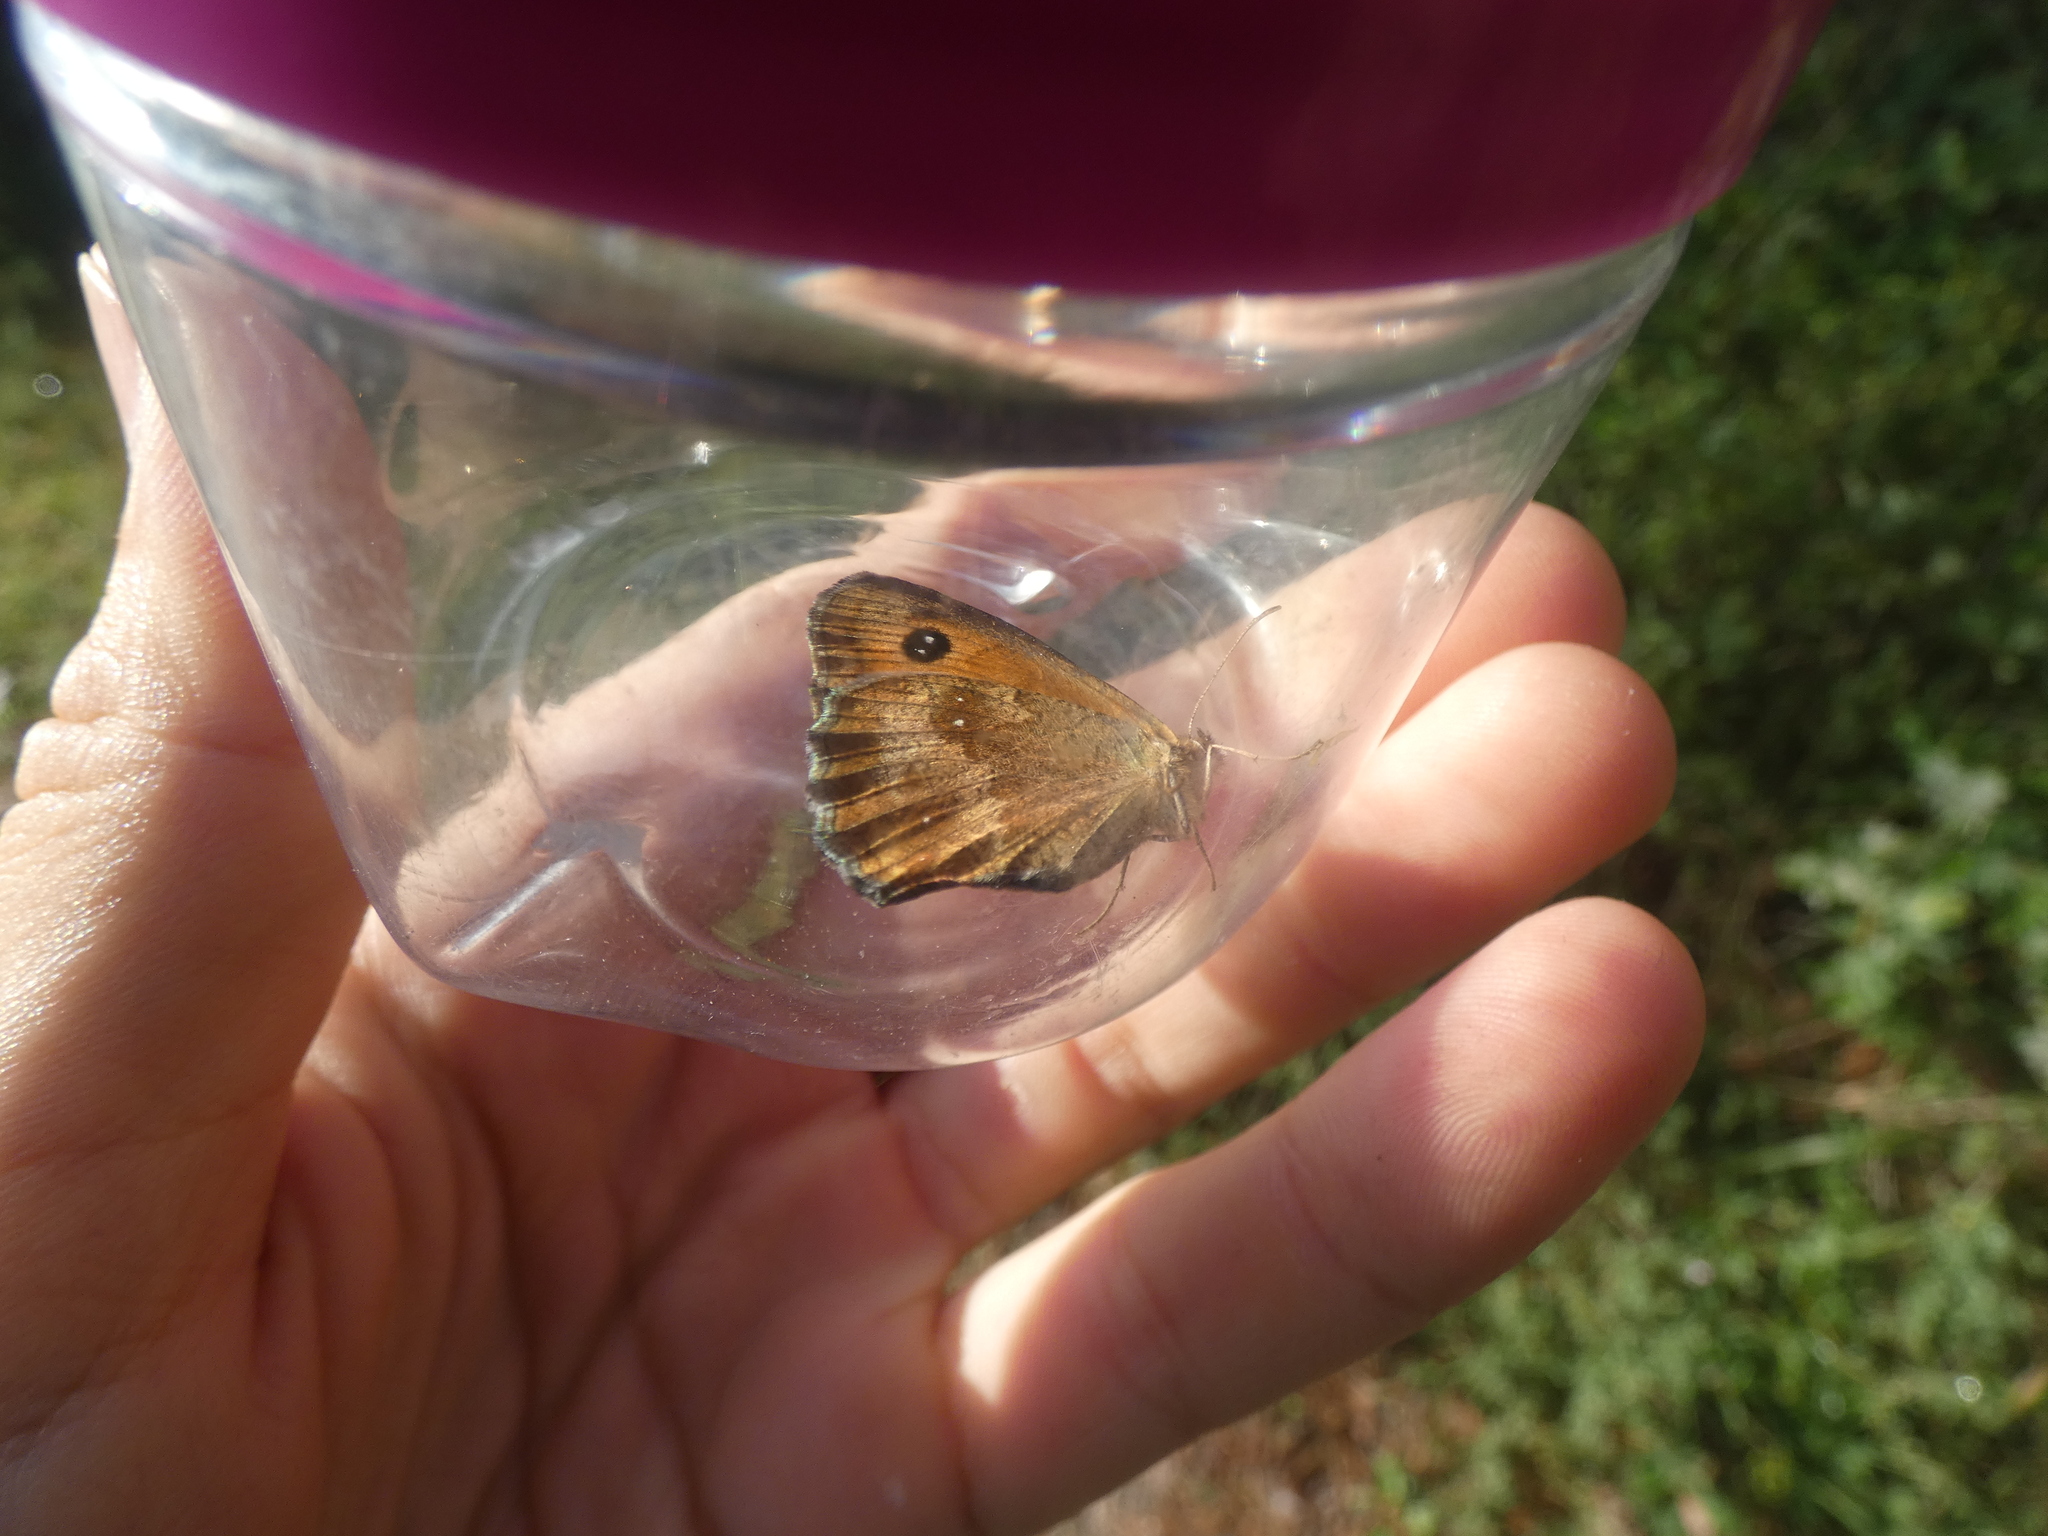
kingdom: Animalia
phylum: Arthropoda
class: Insecta
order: Lepidoptera
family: Nymphalidae
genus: Pyronia
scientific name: Pyronia tithonus
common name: Gatekeeper
